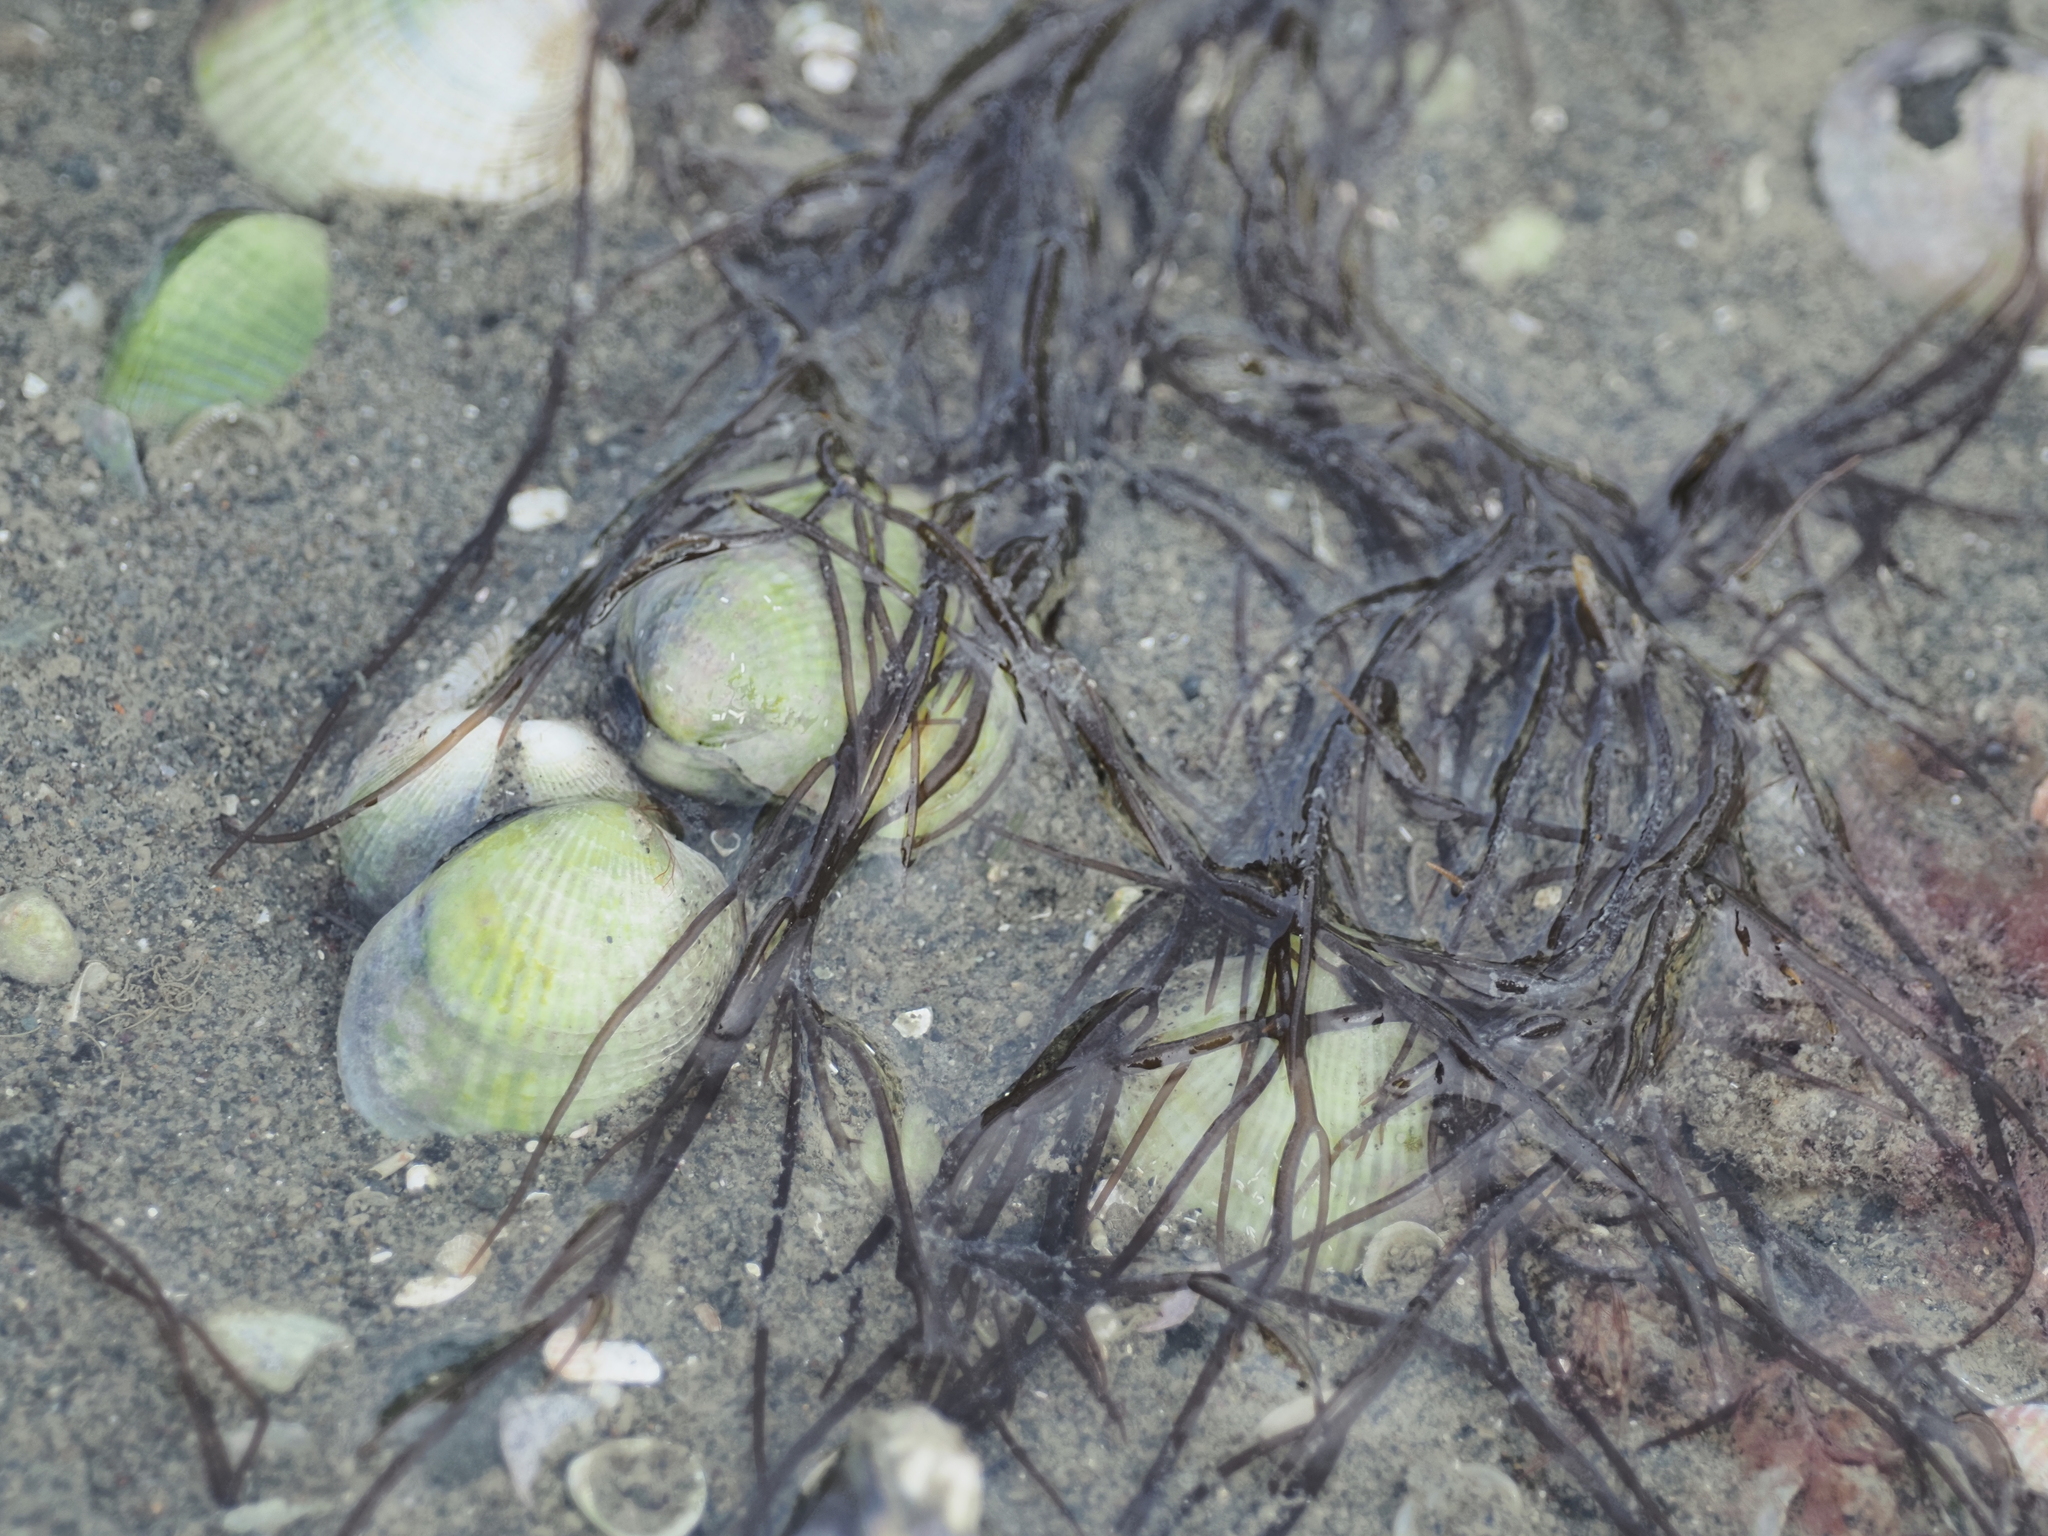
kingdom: Plantae
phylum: Rhodophyta
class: Florideophyceae
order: Gracilariales
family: Gracilariaceae
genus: Gracilaria
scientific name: Gracilaria chilensis
